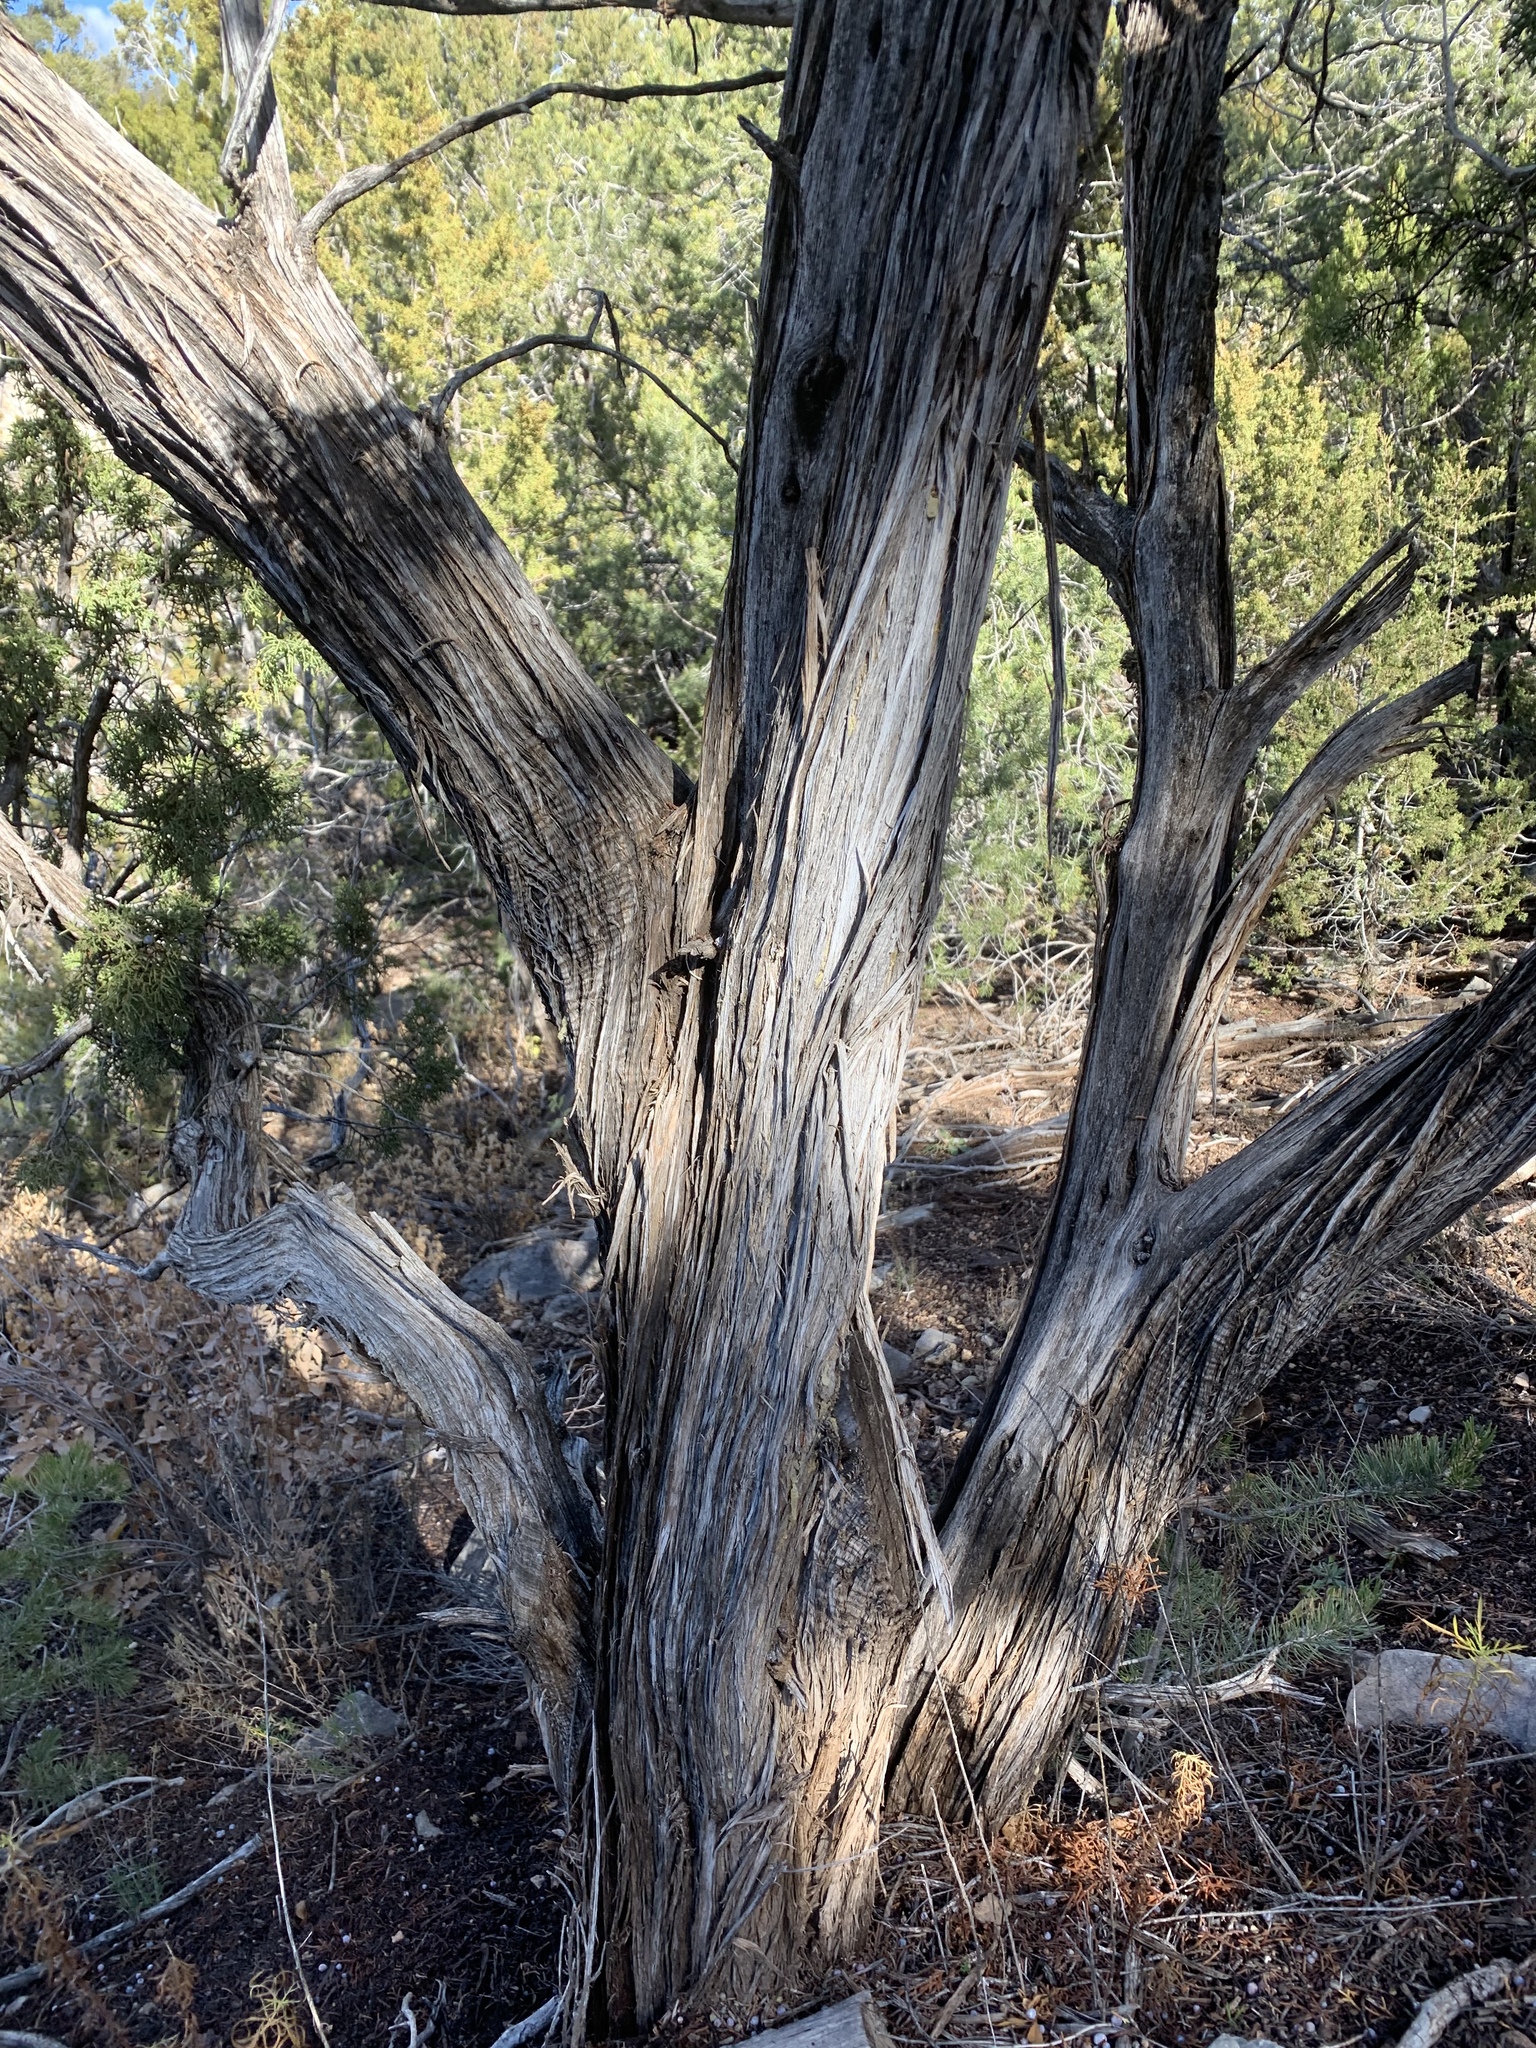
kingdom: Plantae
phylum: Tracheophyta
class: Pinopsida
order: Pinales
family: Cupressaceae
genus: Juniperus
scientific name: Juniperus monosperma
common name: One-seed juniper
